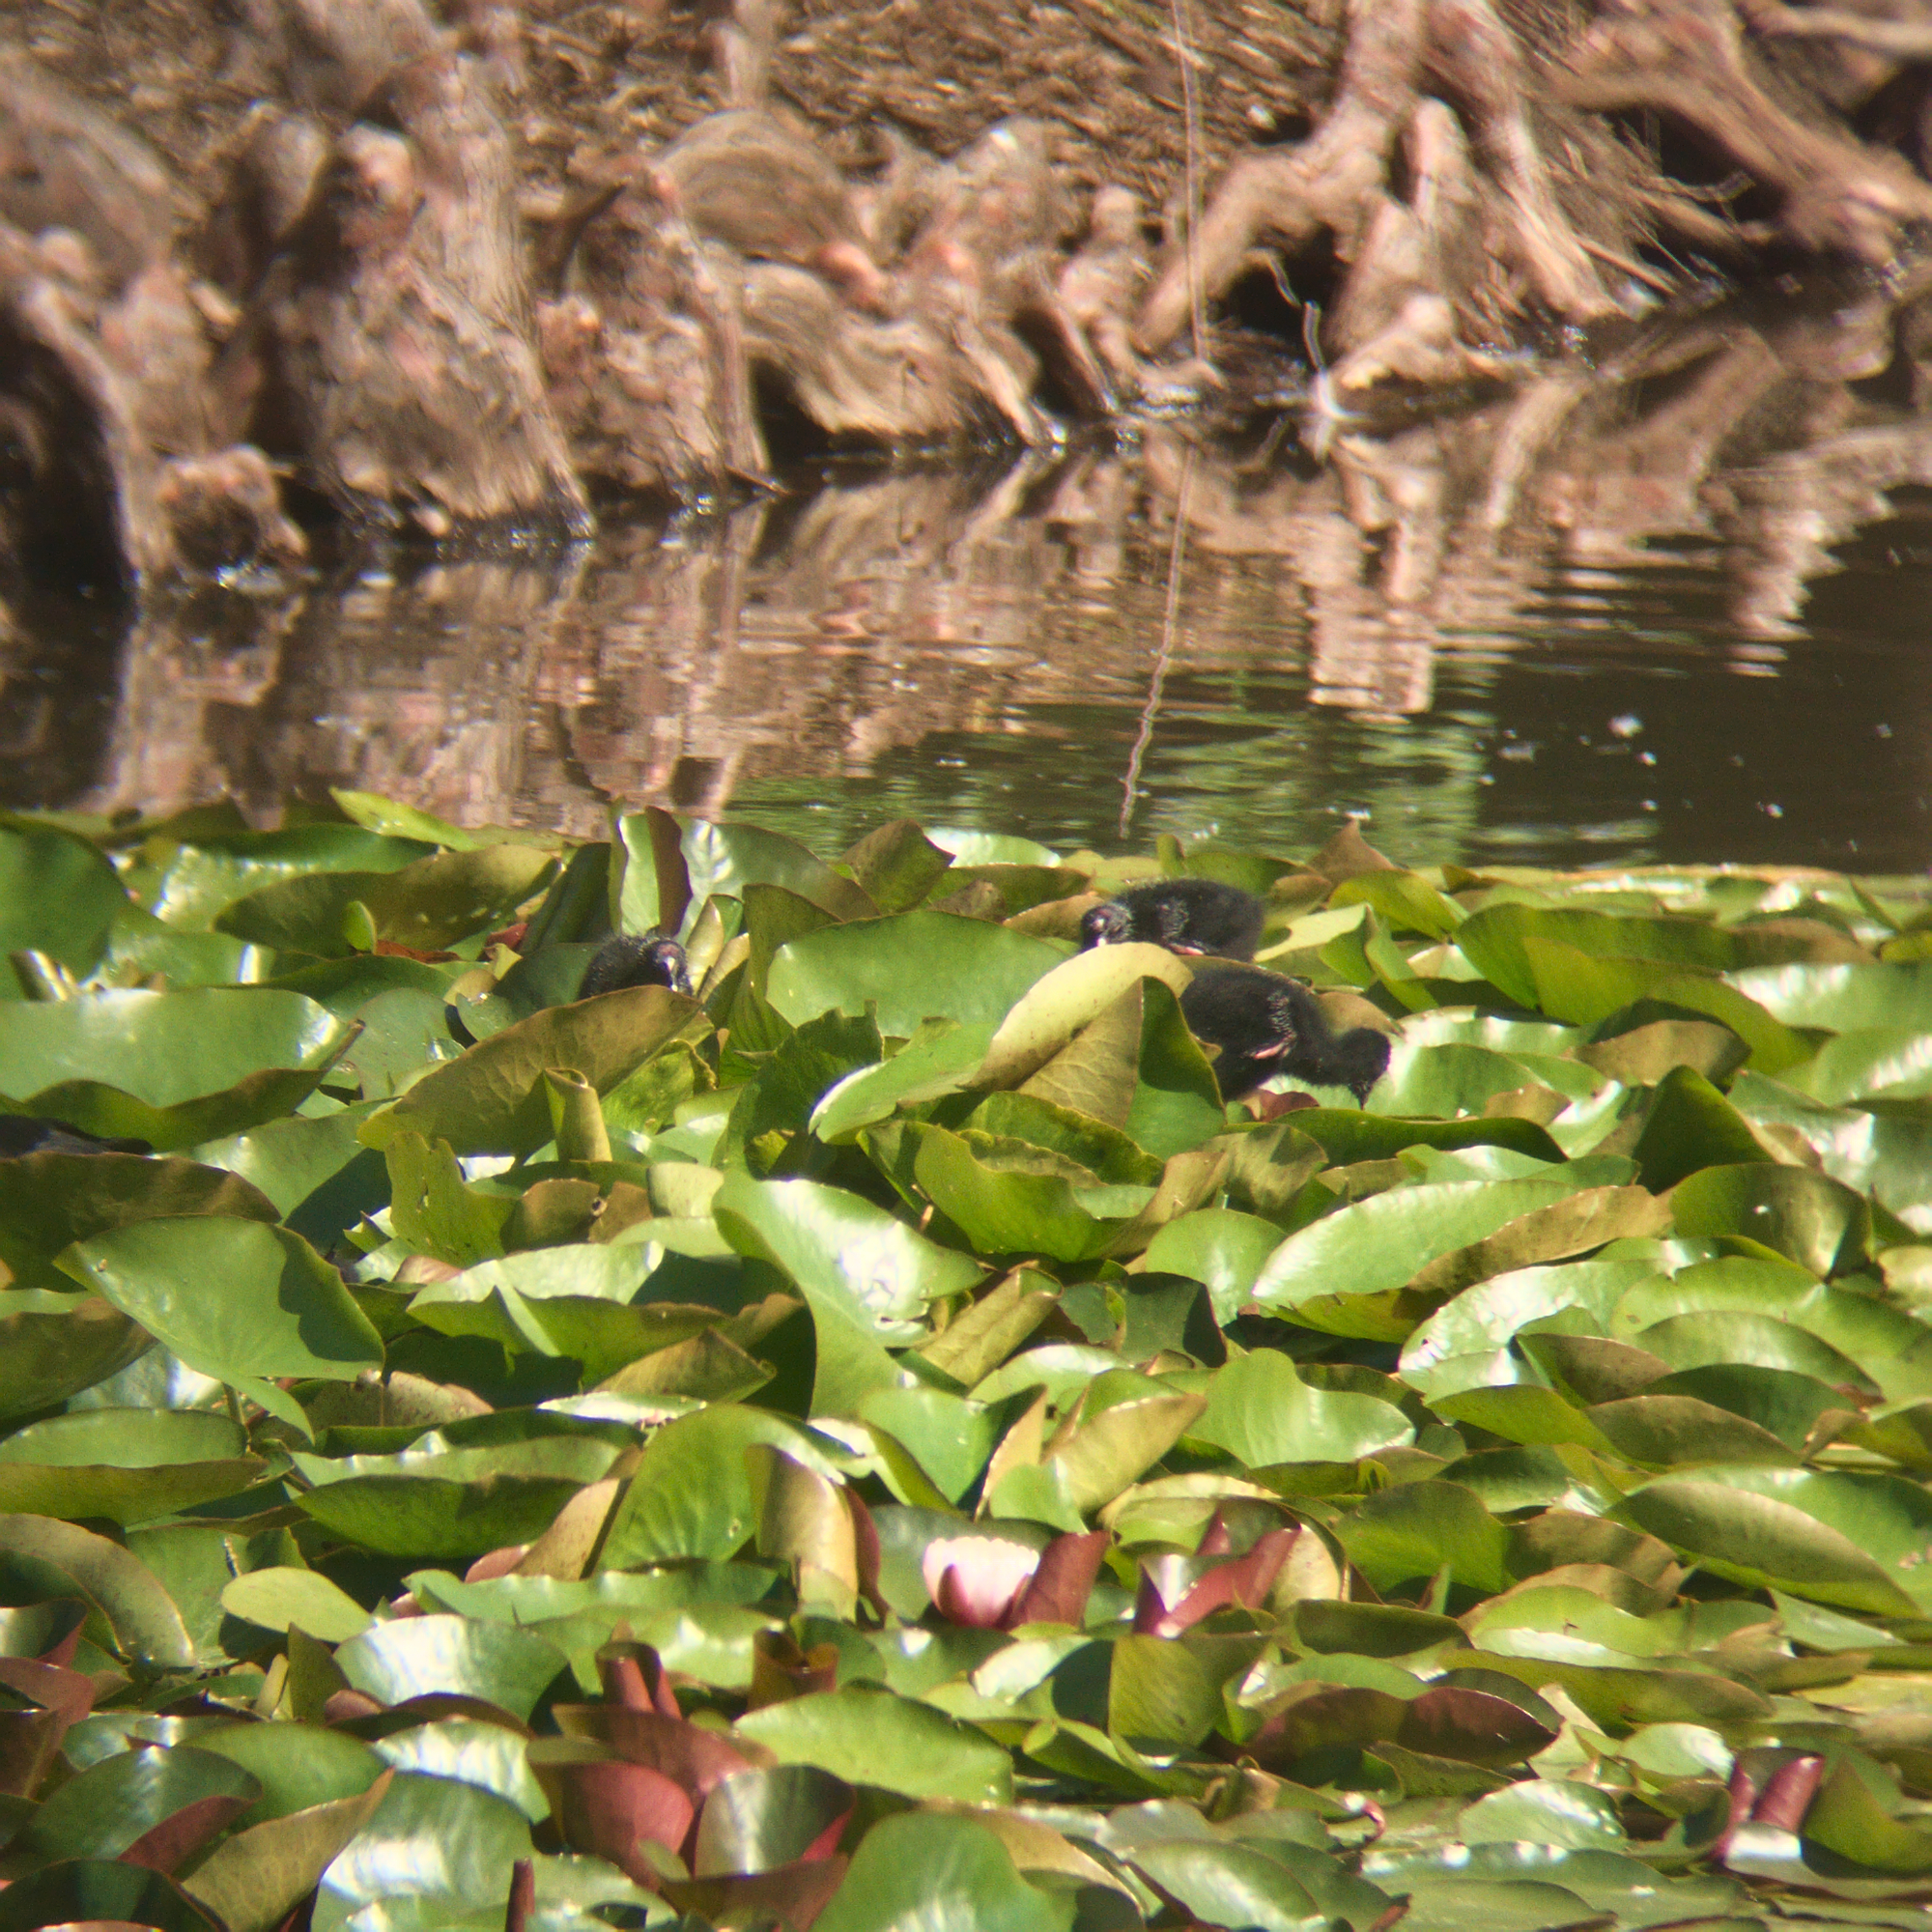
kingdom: Animalia
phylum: Chordata
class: Aves
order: Gruiformes
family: Rallidae
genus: Porphyrio
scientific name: Porphyrio melanotus
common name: Australasian swamphen
